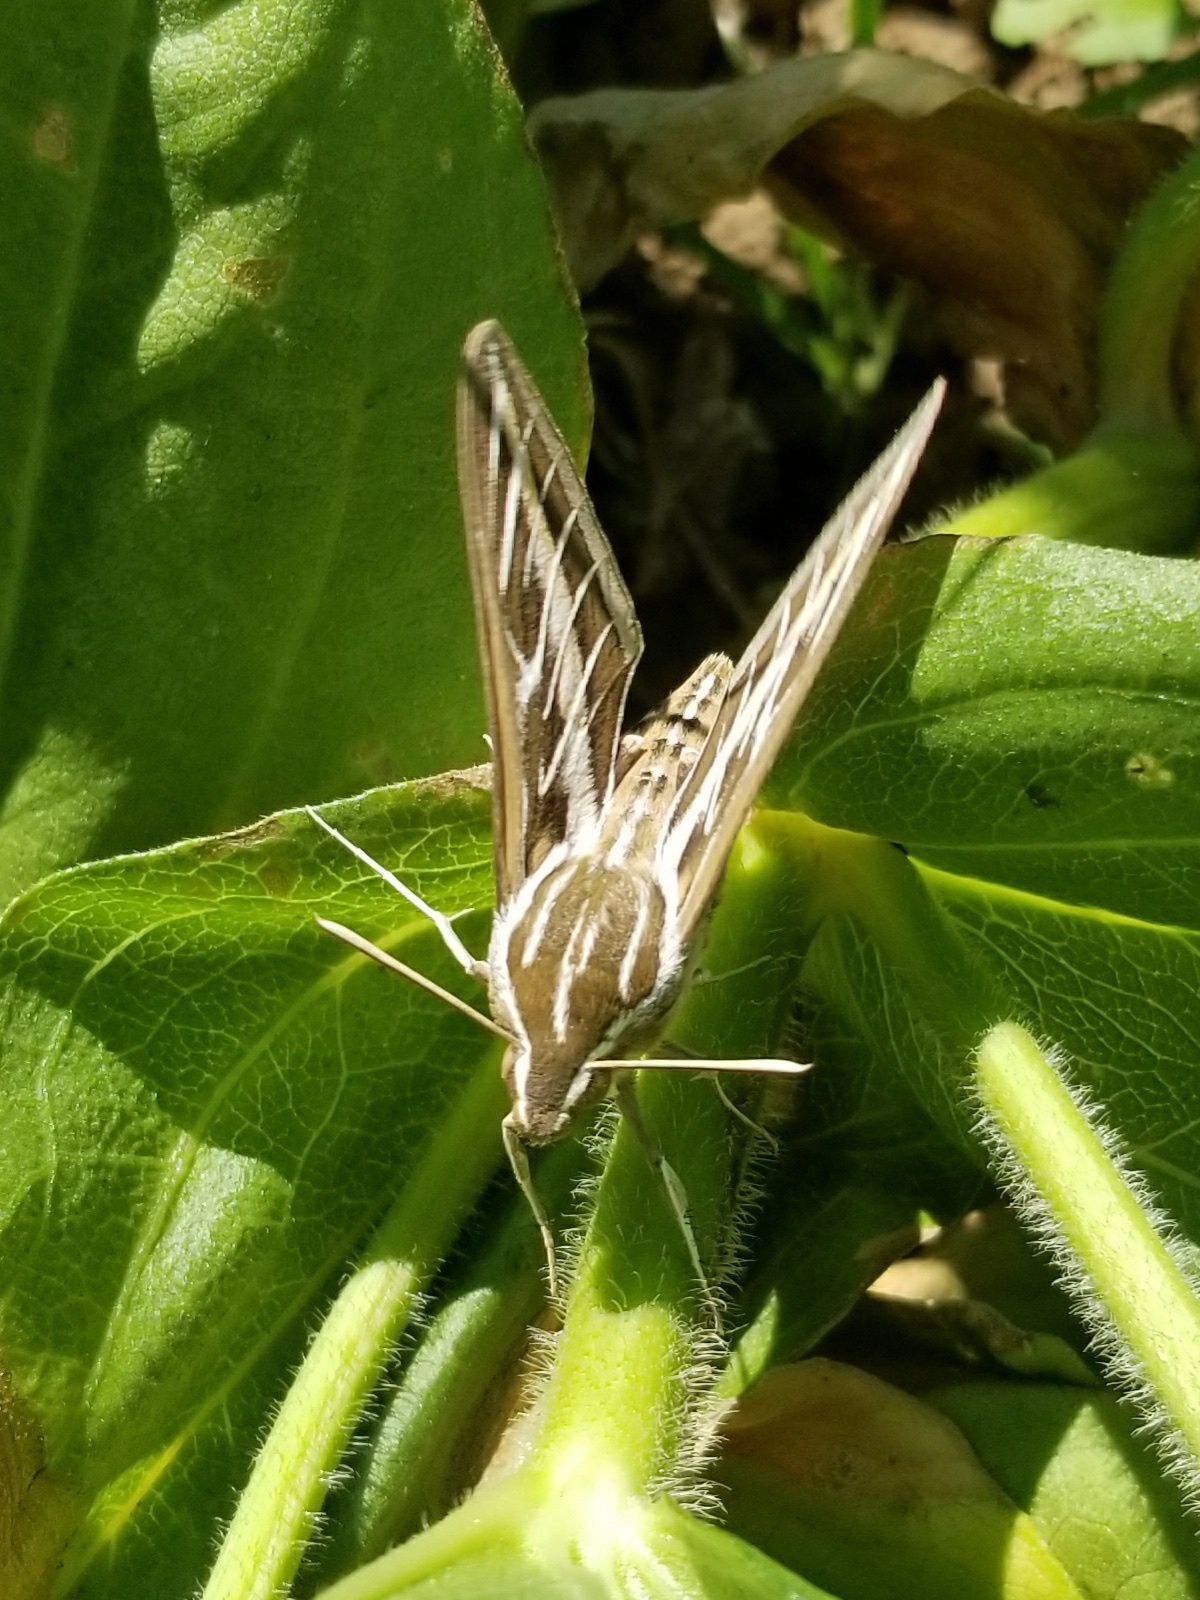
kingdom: Animalia
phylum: Arthropoda
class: Insecta
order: Lepidoptera
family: Sphingidae
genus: Hyles
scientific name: Hyles lineata
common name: White-lined sphinx
